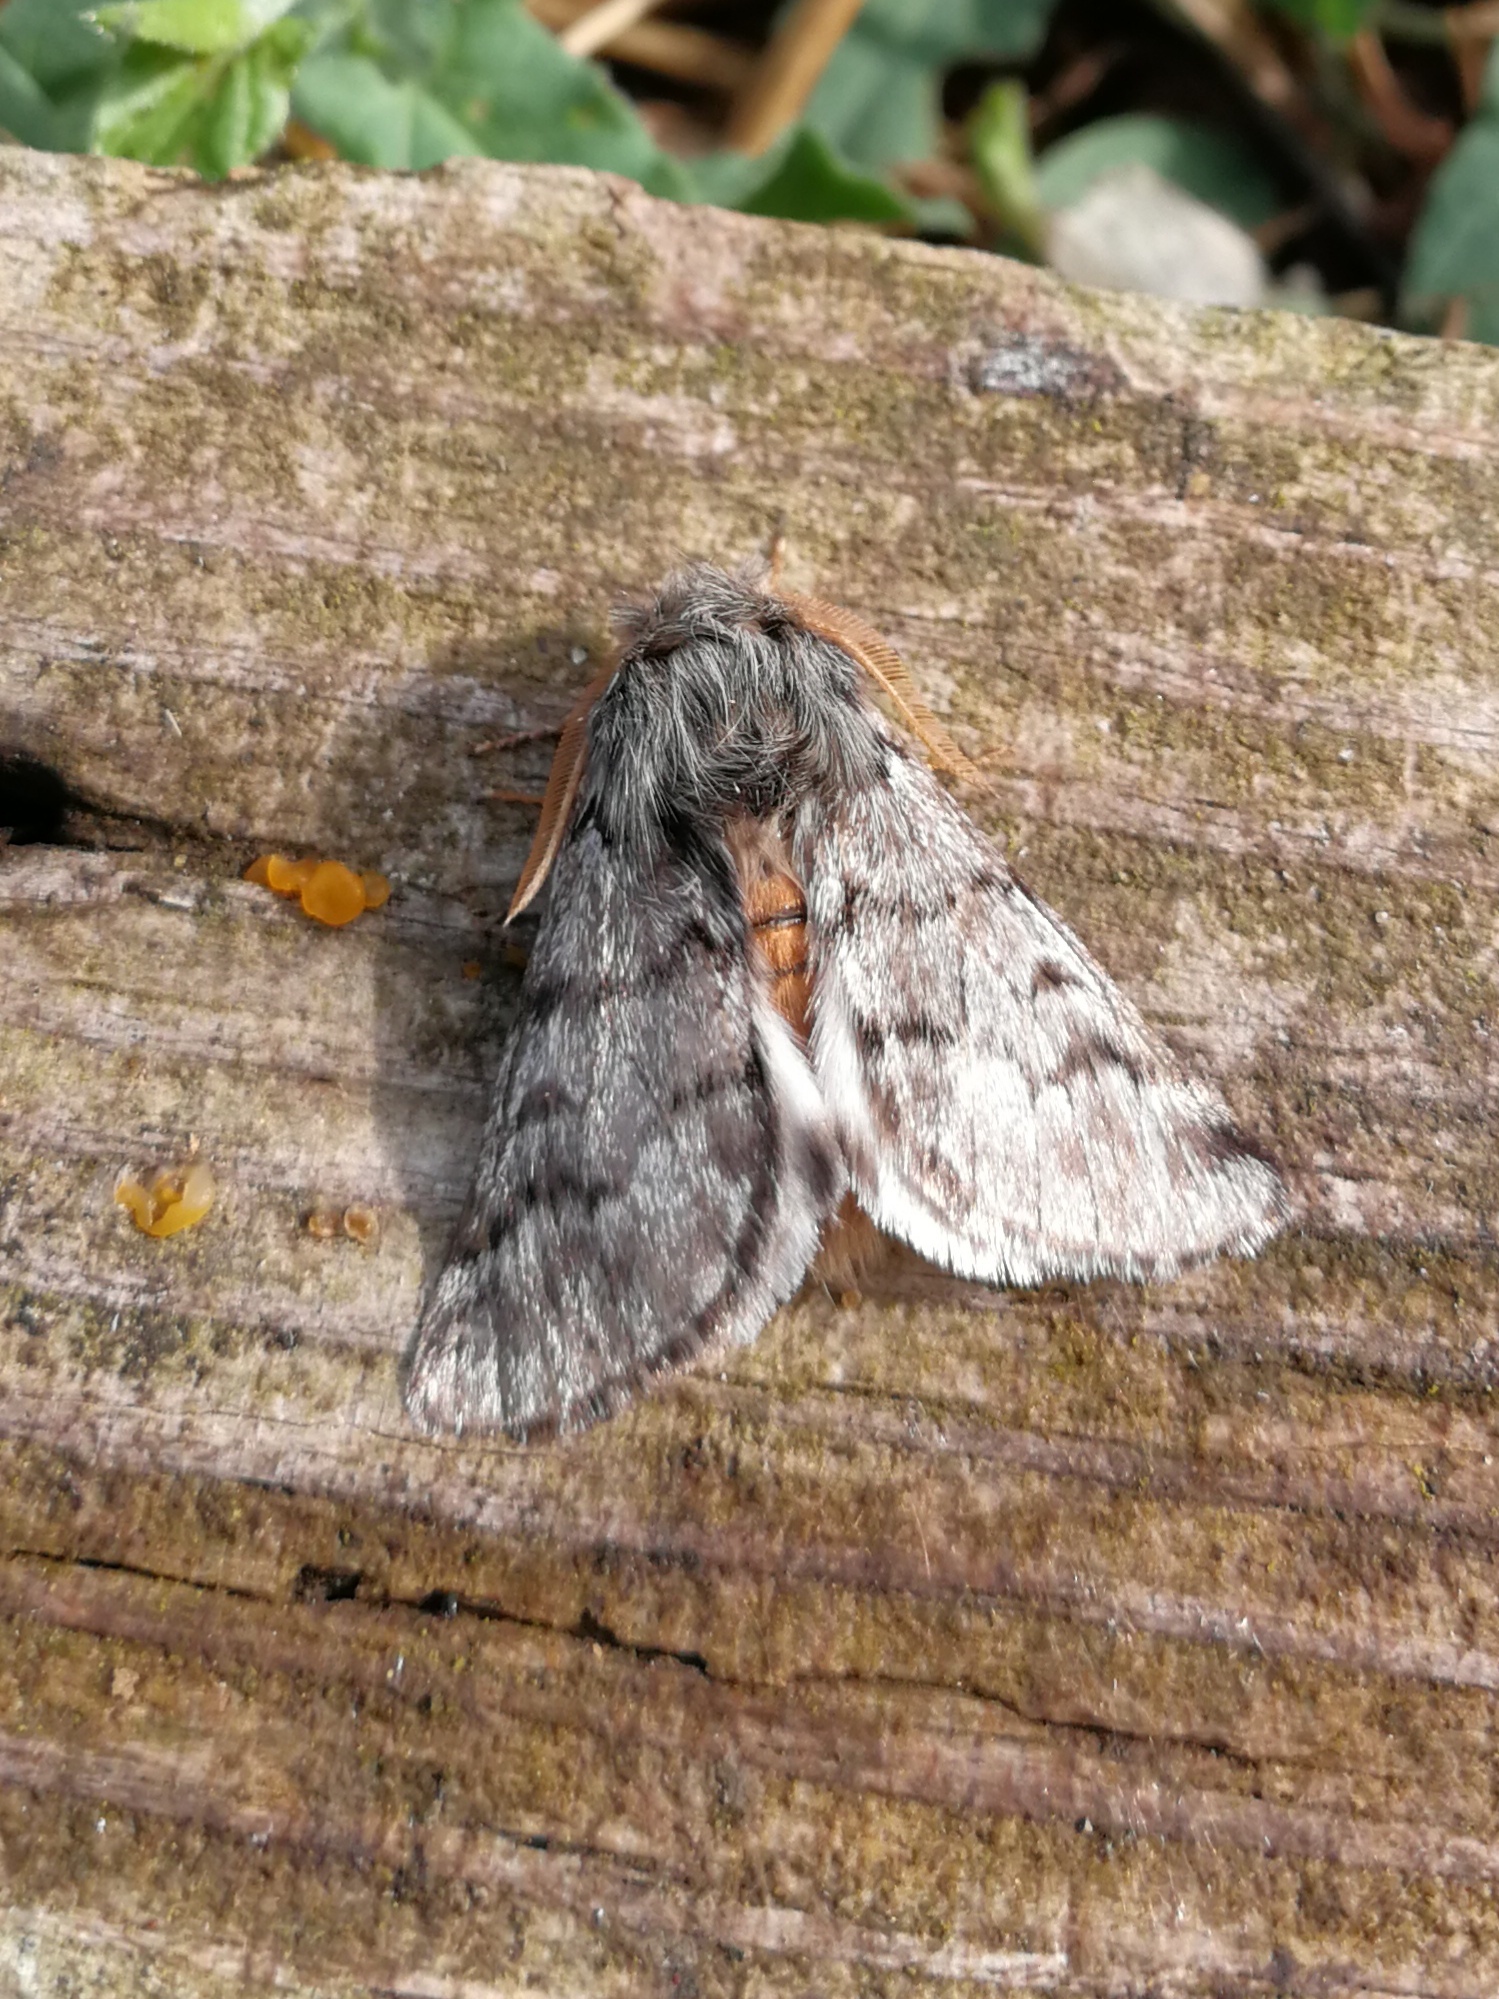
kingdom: Animalia
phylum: Arthropoda
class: Insecta
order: Lepidoptera
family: Notodontidae
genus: Thaumetopoea
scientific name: Thaumetopoea pityocampa
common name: Pine processionary
